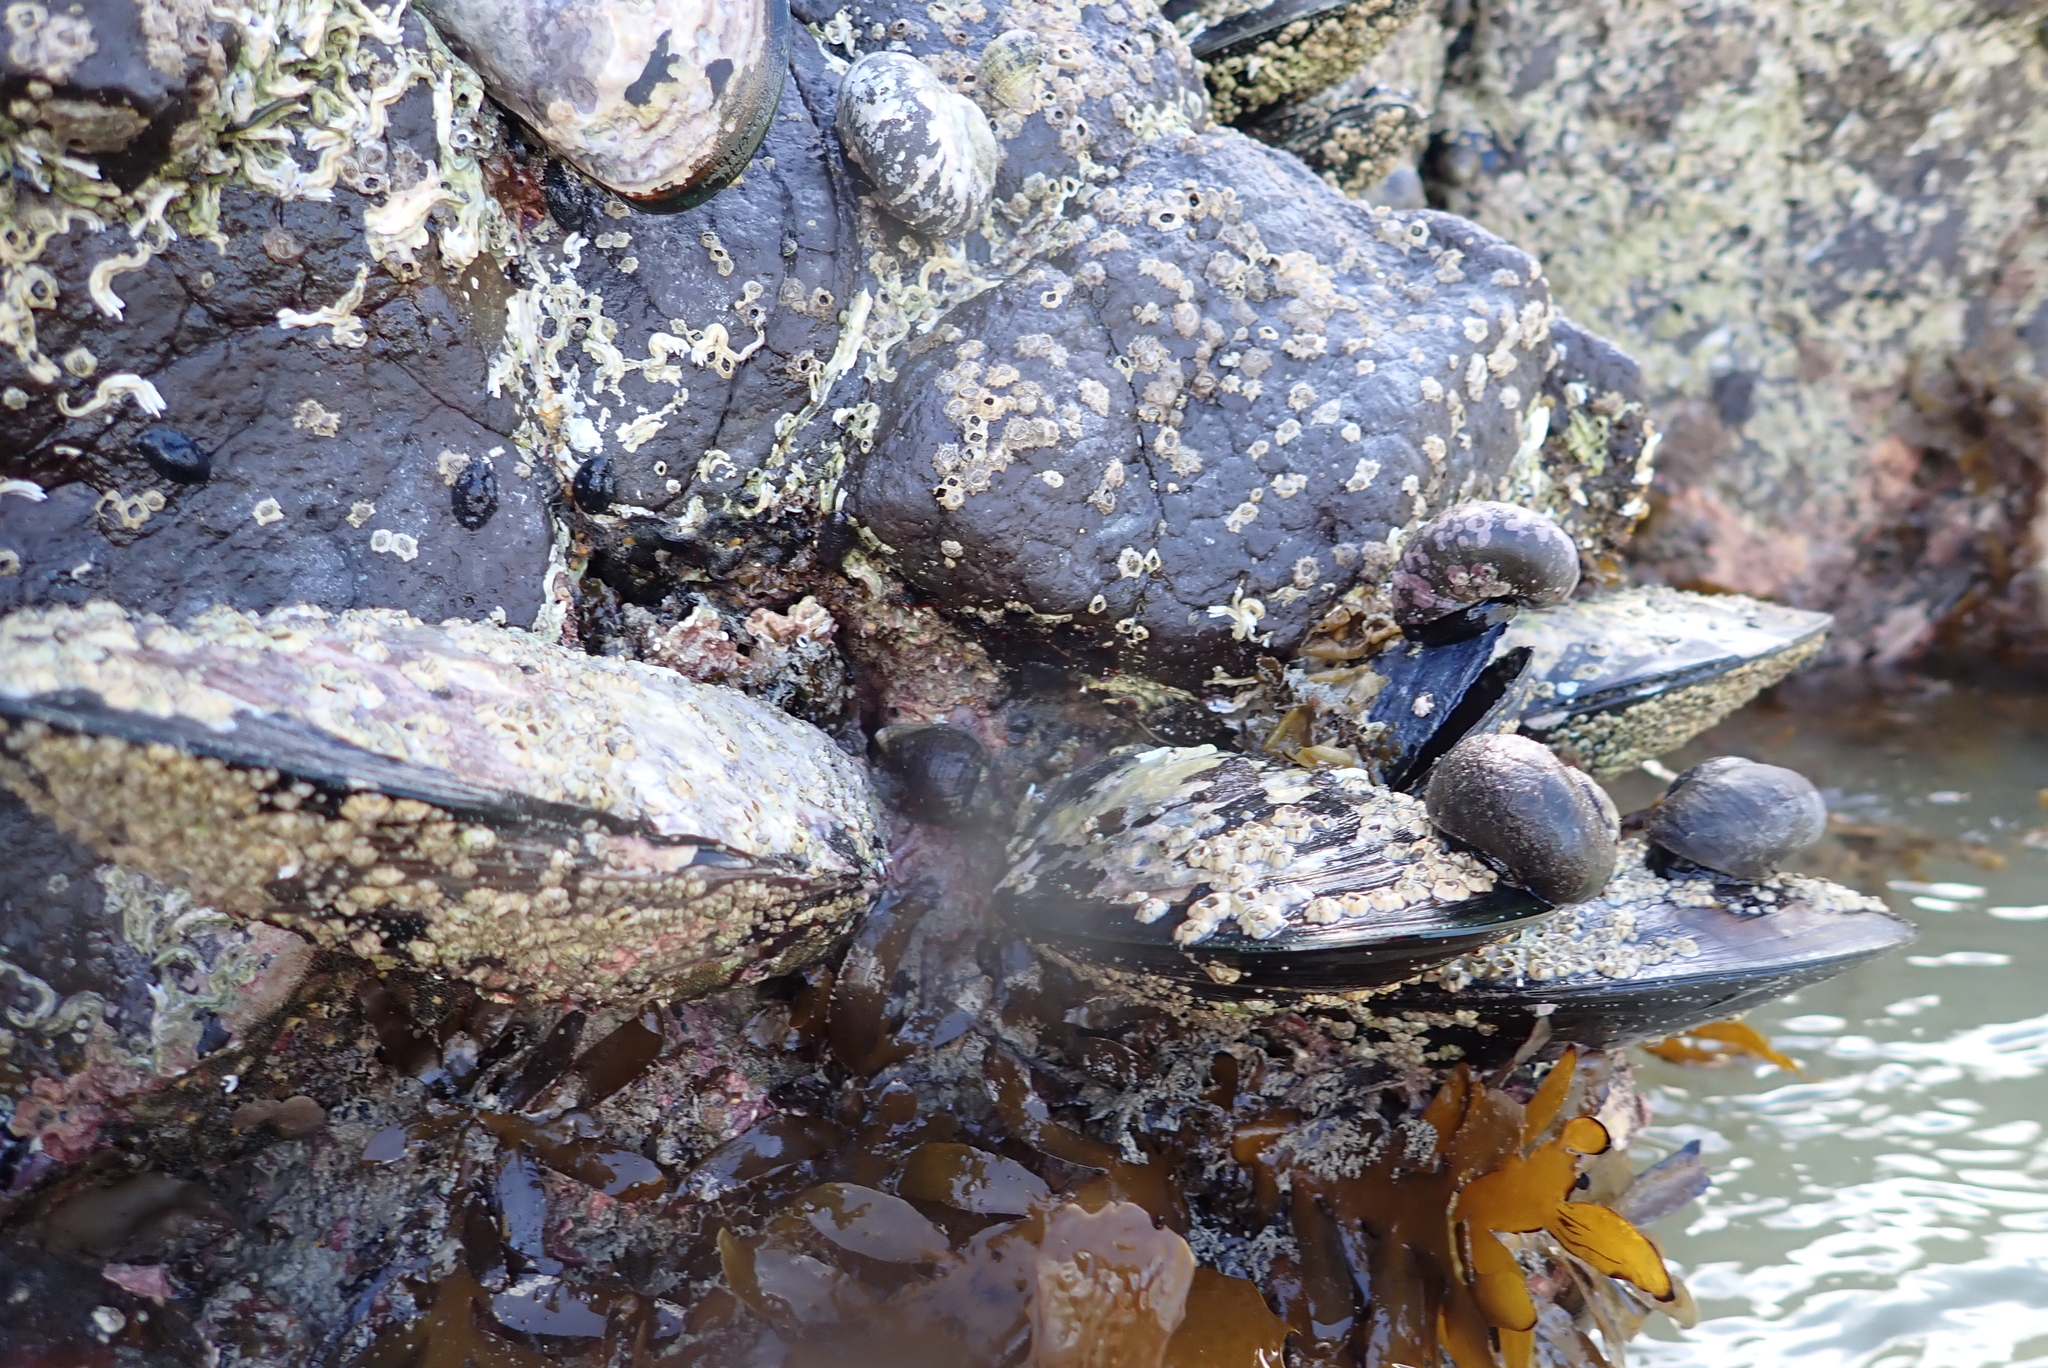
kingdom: Animalia
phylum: Mollusca
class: Bivalvia
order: Mytilida
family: Mytilidae
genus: Perna
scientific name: Perna canaliculus
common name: New zealand greenshelltm
